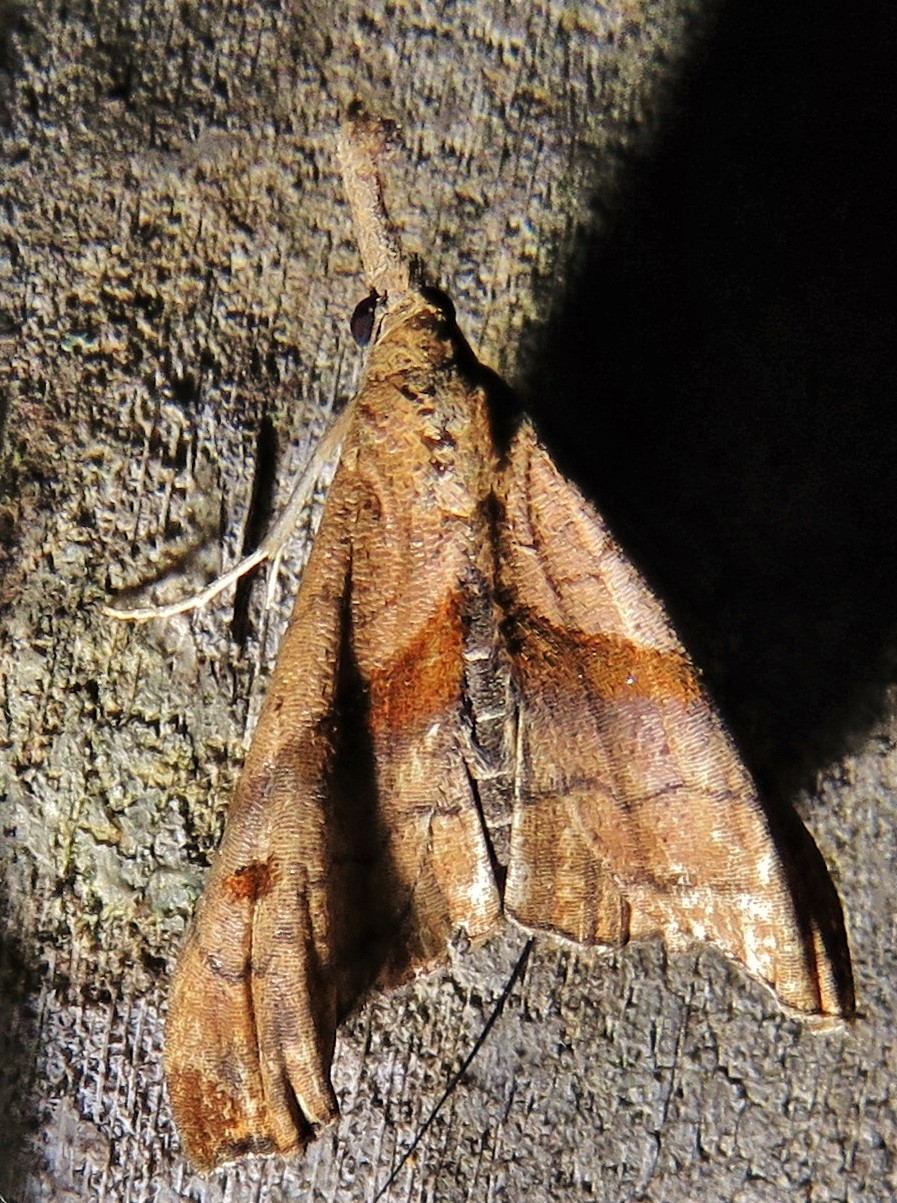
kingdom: Animalia
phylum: Arthropoda
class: Insecta
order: Lepidoptera
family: Erebidae
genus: Palthis
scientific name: Palthis angulalis
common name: Dark-spotted palthis moth
